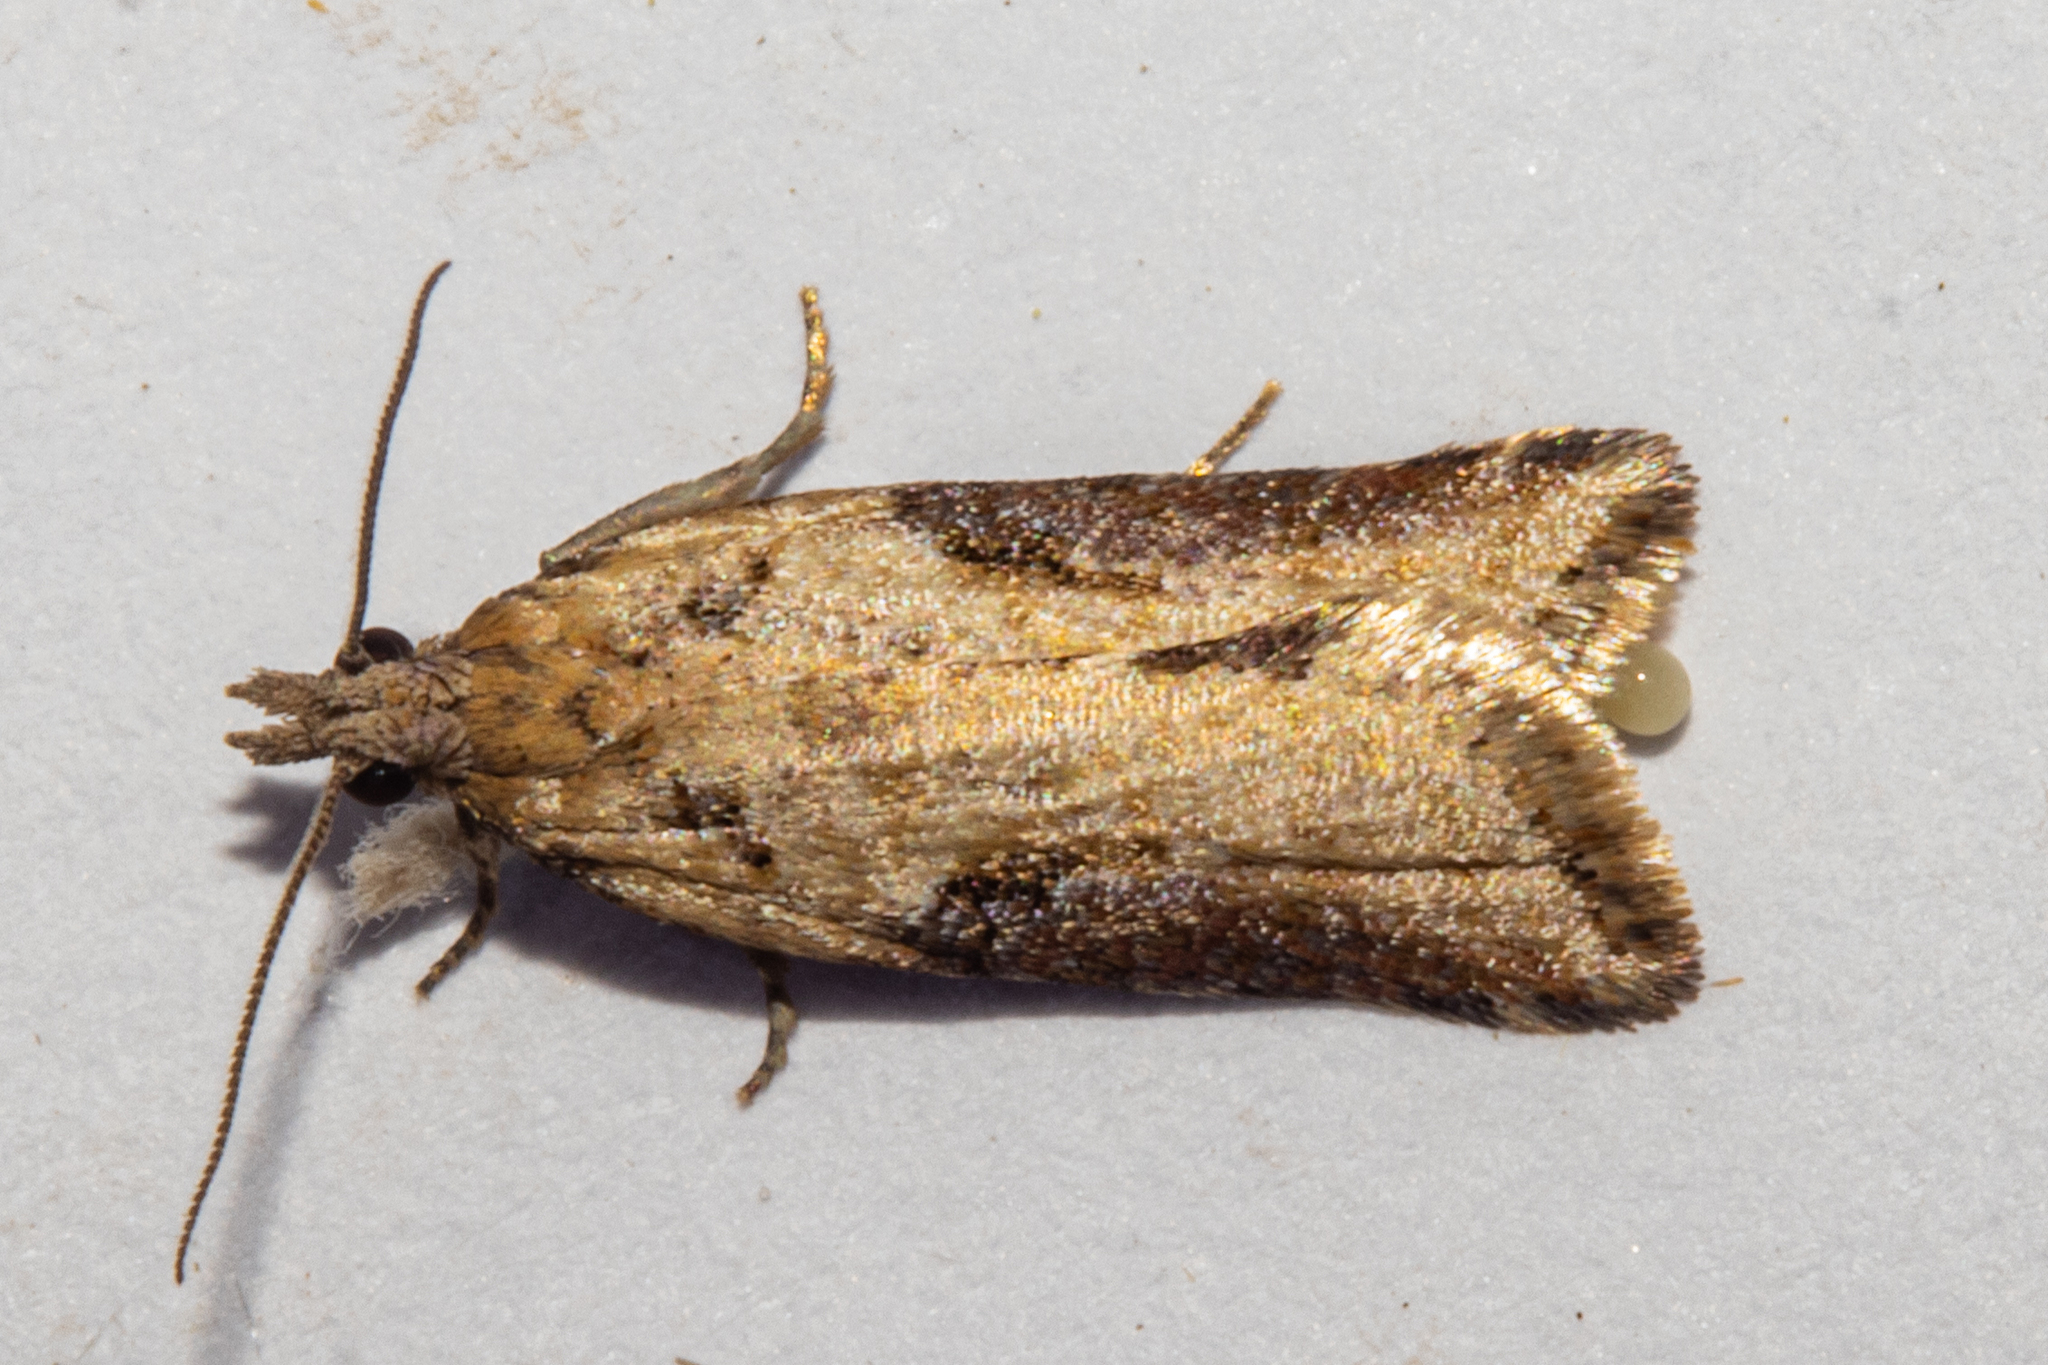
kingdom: Animalia
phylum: Arthropoda
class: Insecta
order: Lepidoptera
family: Tortricidae
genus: Capua
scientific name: Capua semiferana
